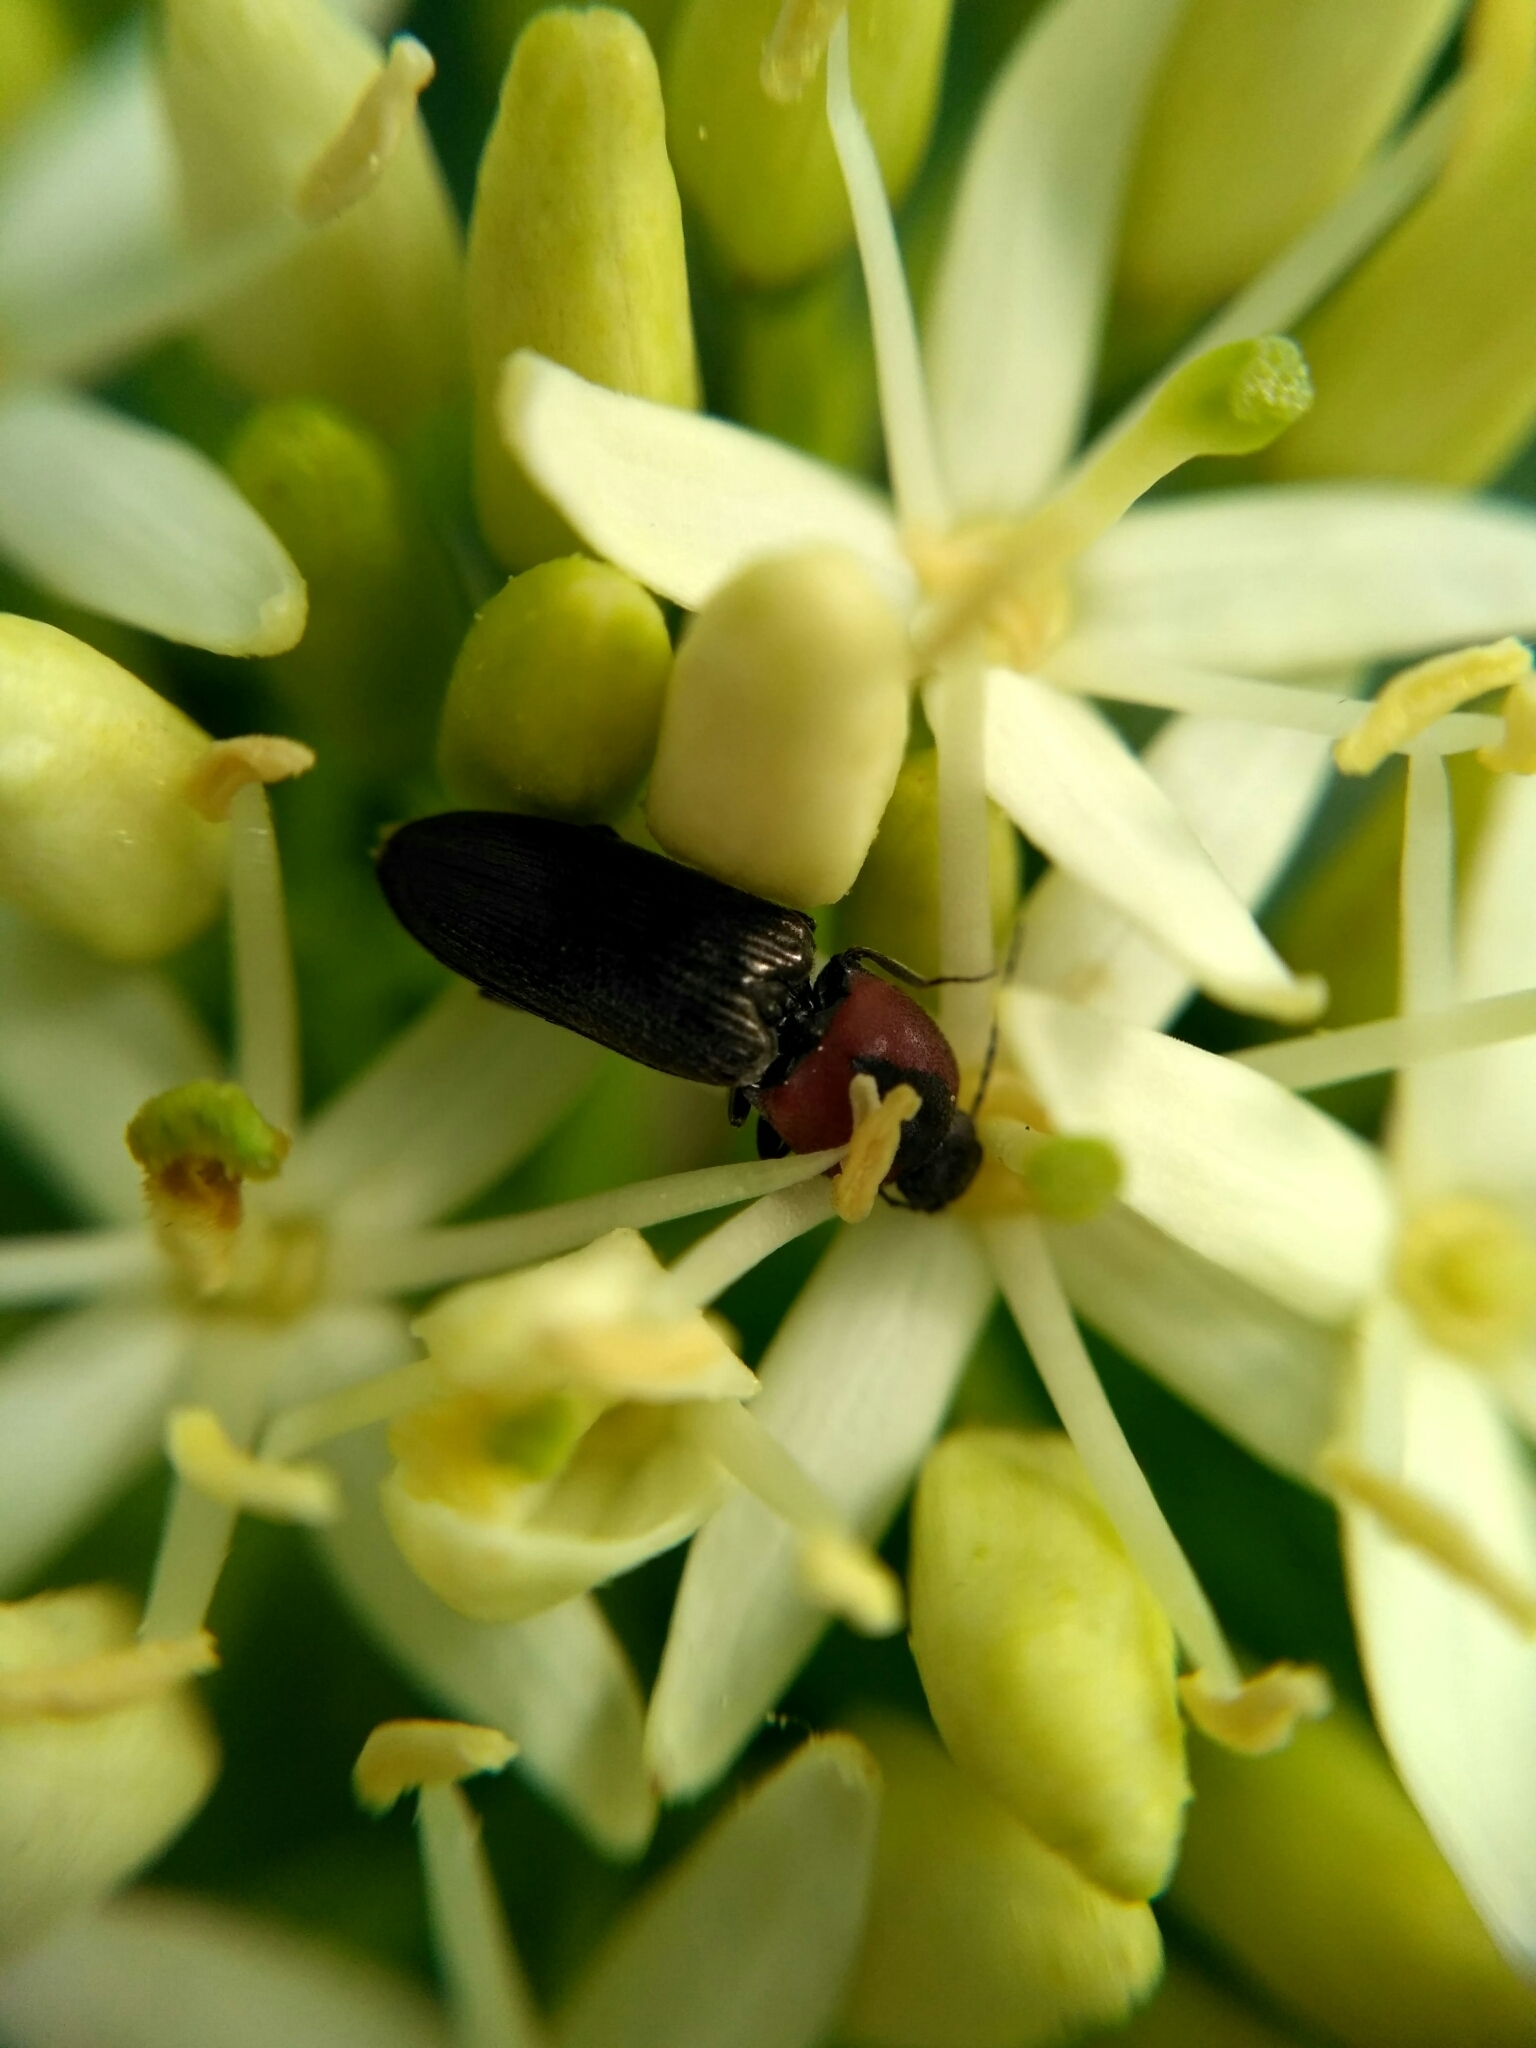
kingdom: Animalia
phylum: Arthropoda
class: Insecta
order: Coleoptera
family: Elateridae
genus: Cardiophorus
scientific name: Cardiophorus discicollis
